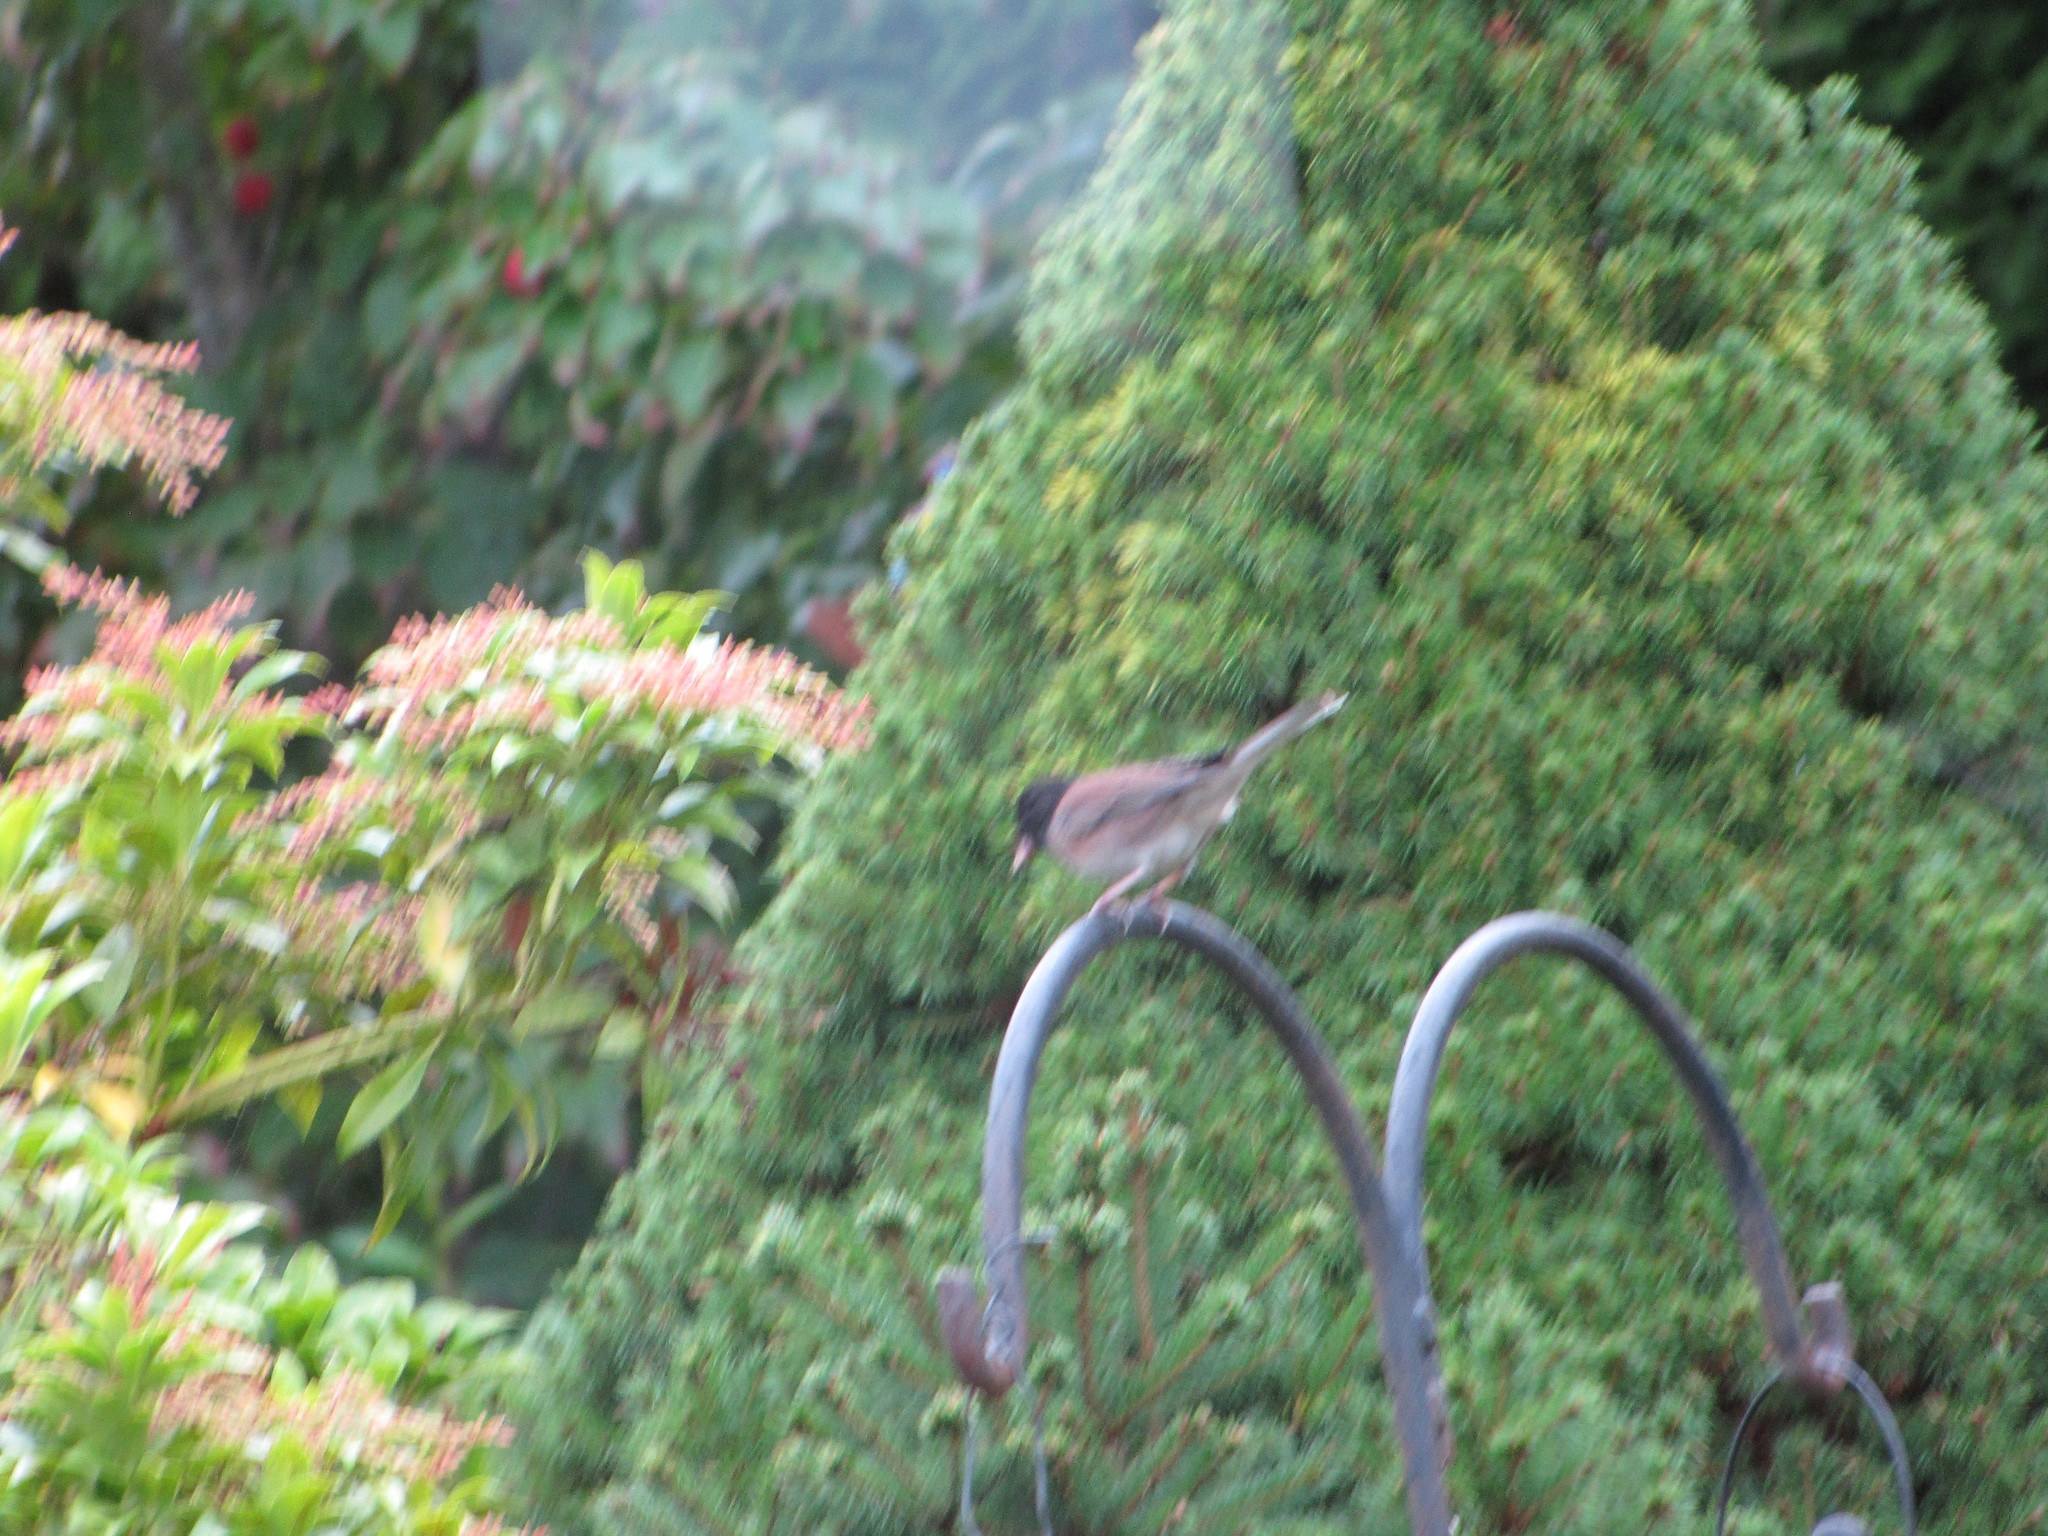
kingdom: Animalia
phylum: Chordata
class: Aves
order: Passeriformes
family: Passerellidae
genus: Junco
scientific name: Junco hyemalis
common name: Dark-eyed junco
